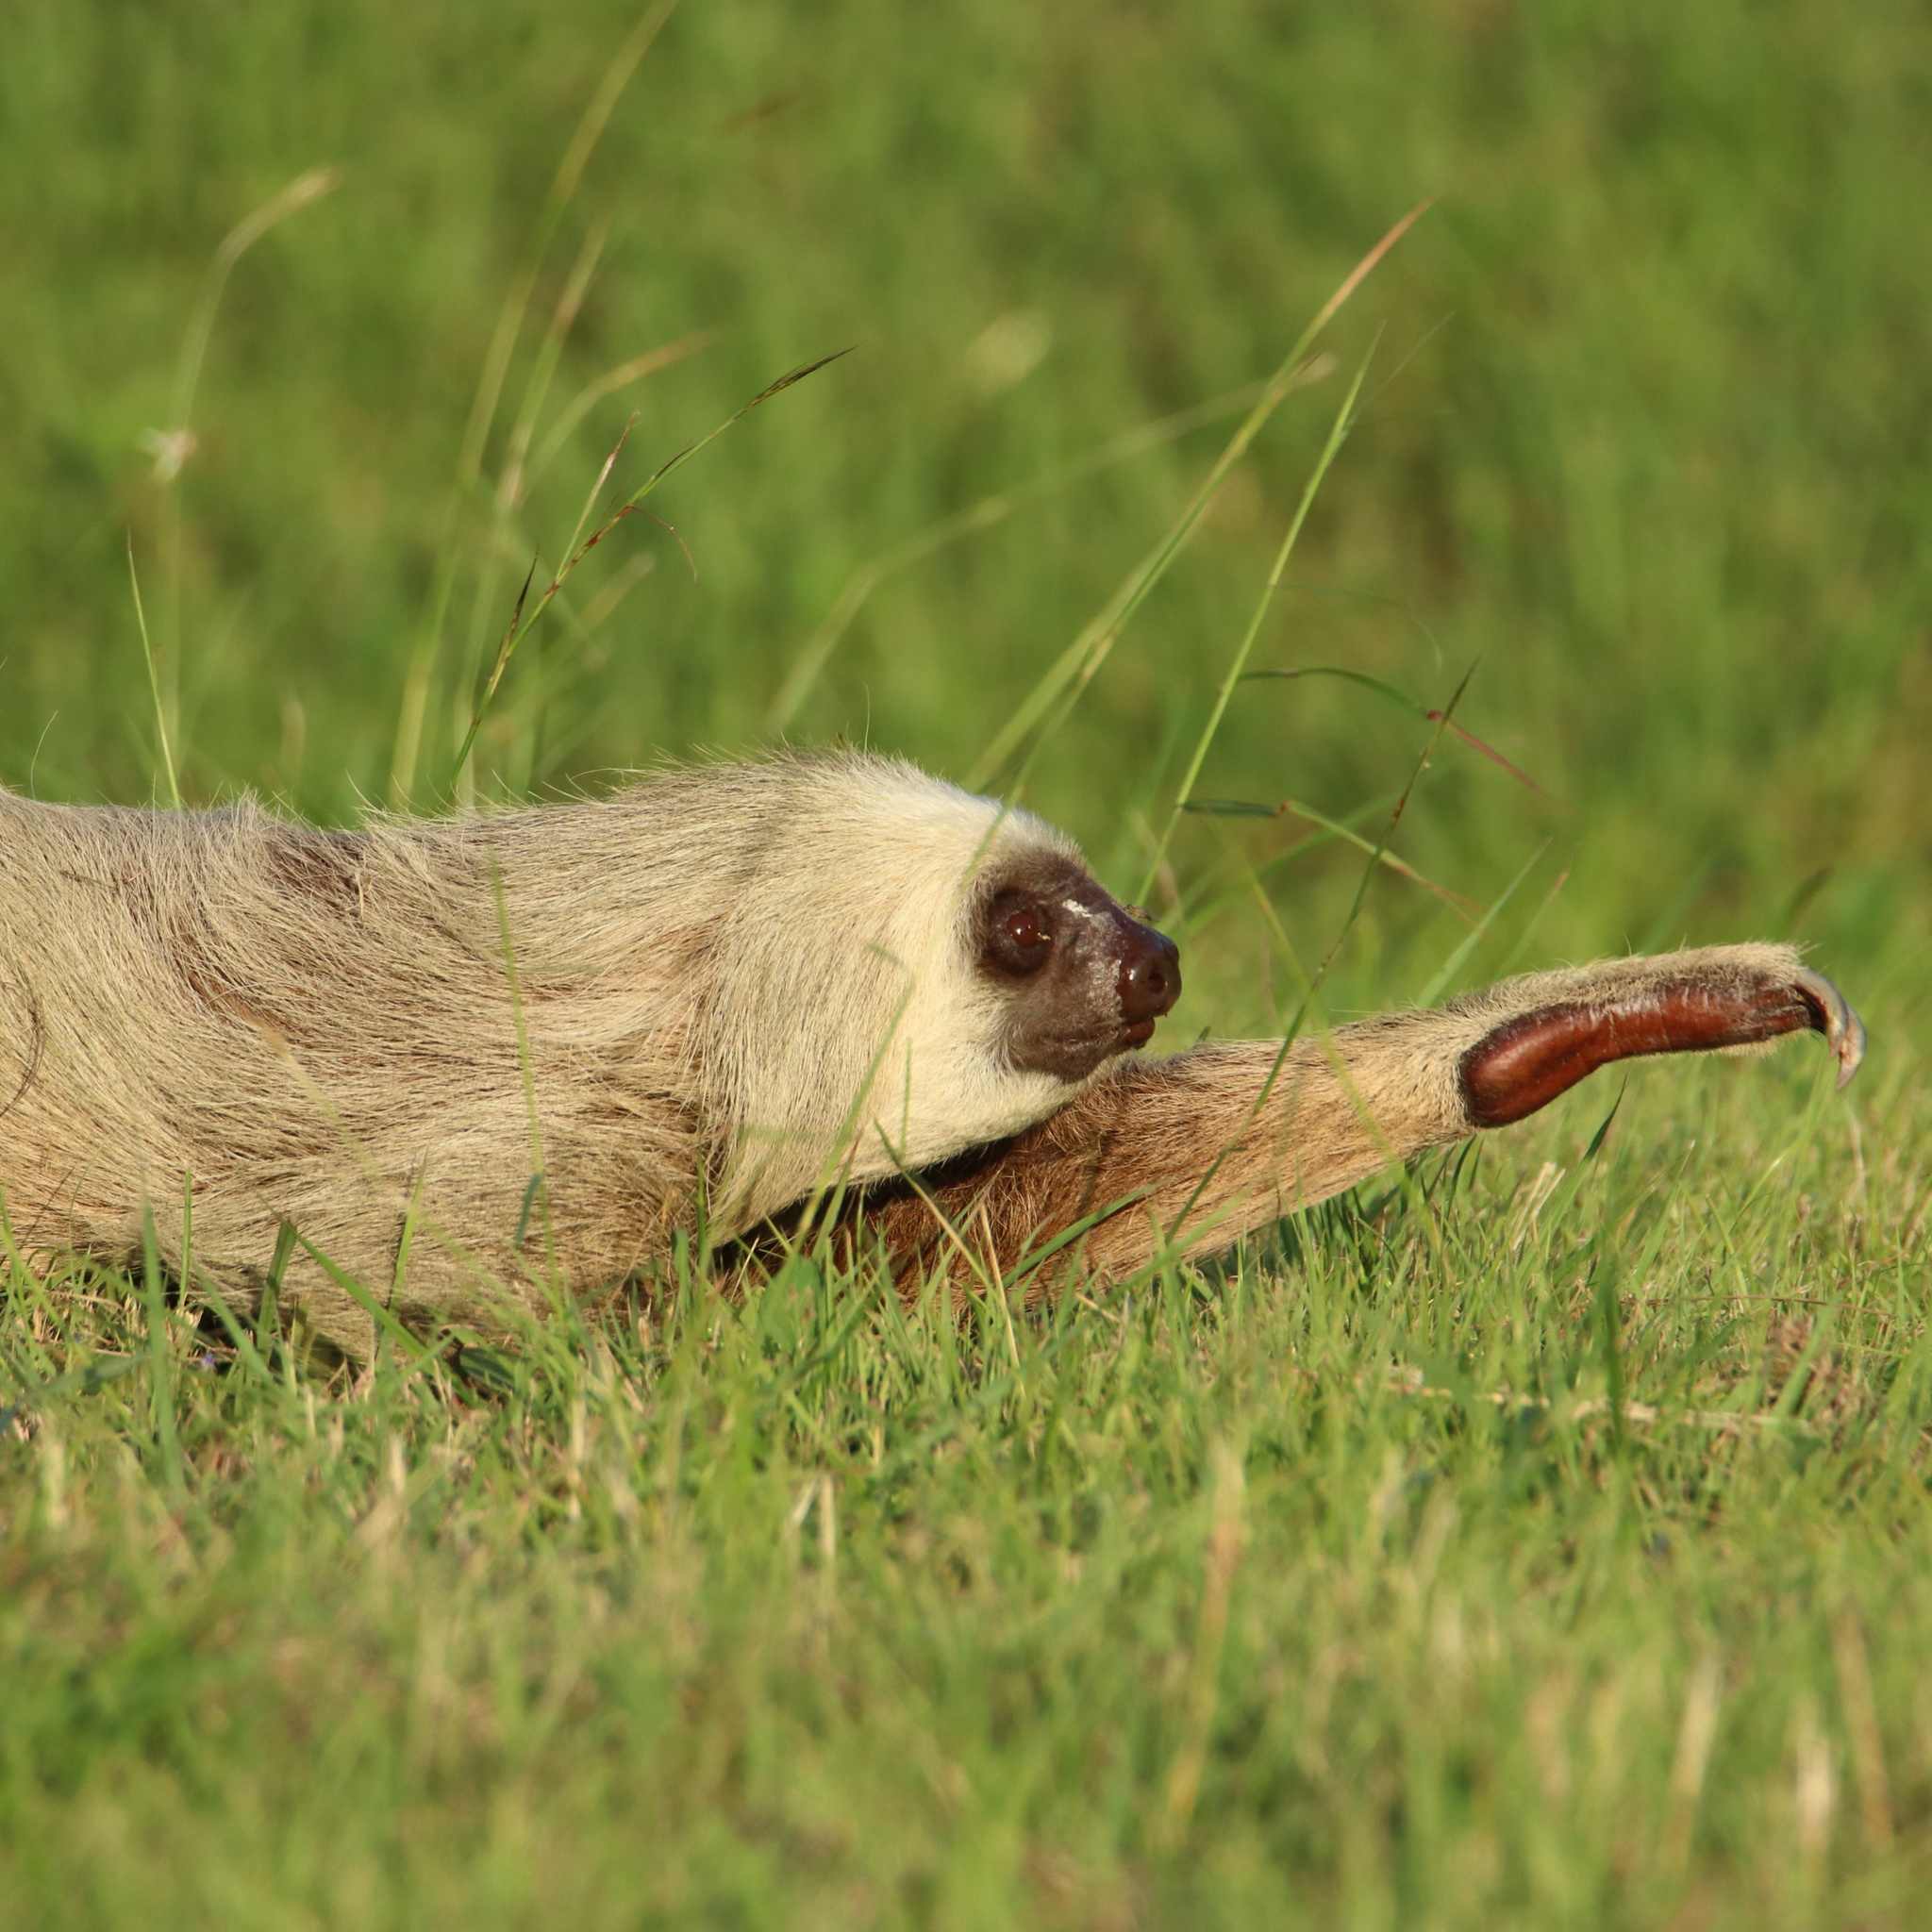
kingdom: Animalia
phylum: Chordata
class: Mammalia
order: Pilosa
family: Megalonychidae
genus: Choloepus
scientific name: Choloepus hoffmanni
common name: Hoffmann's two-toed sloth
